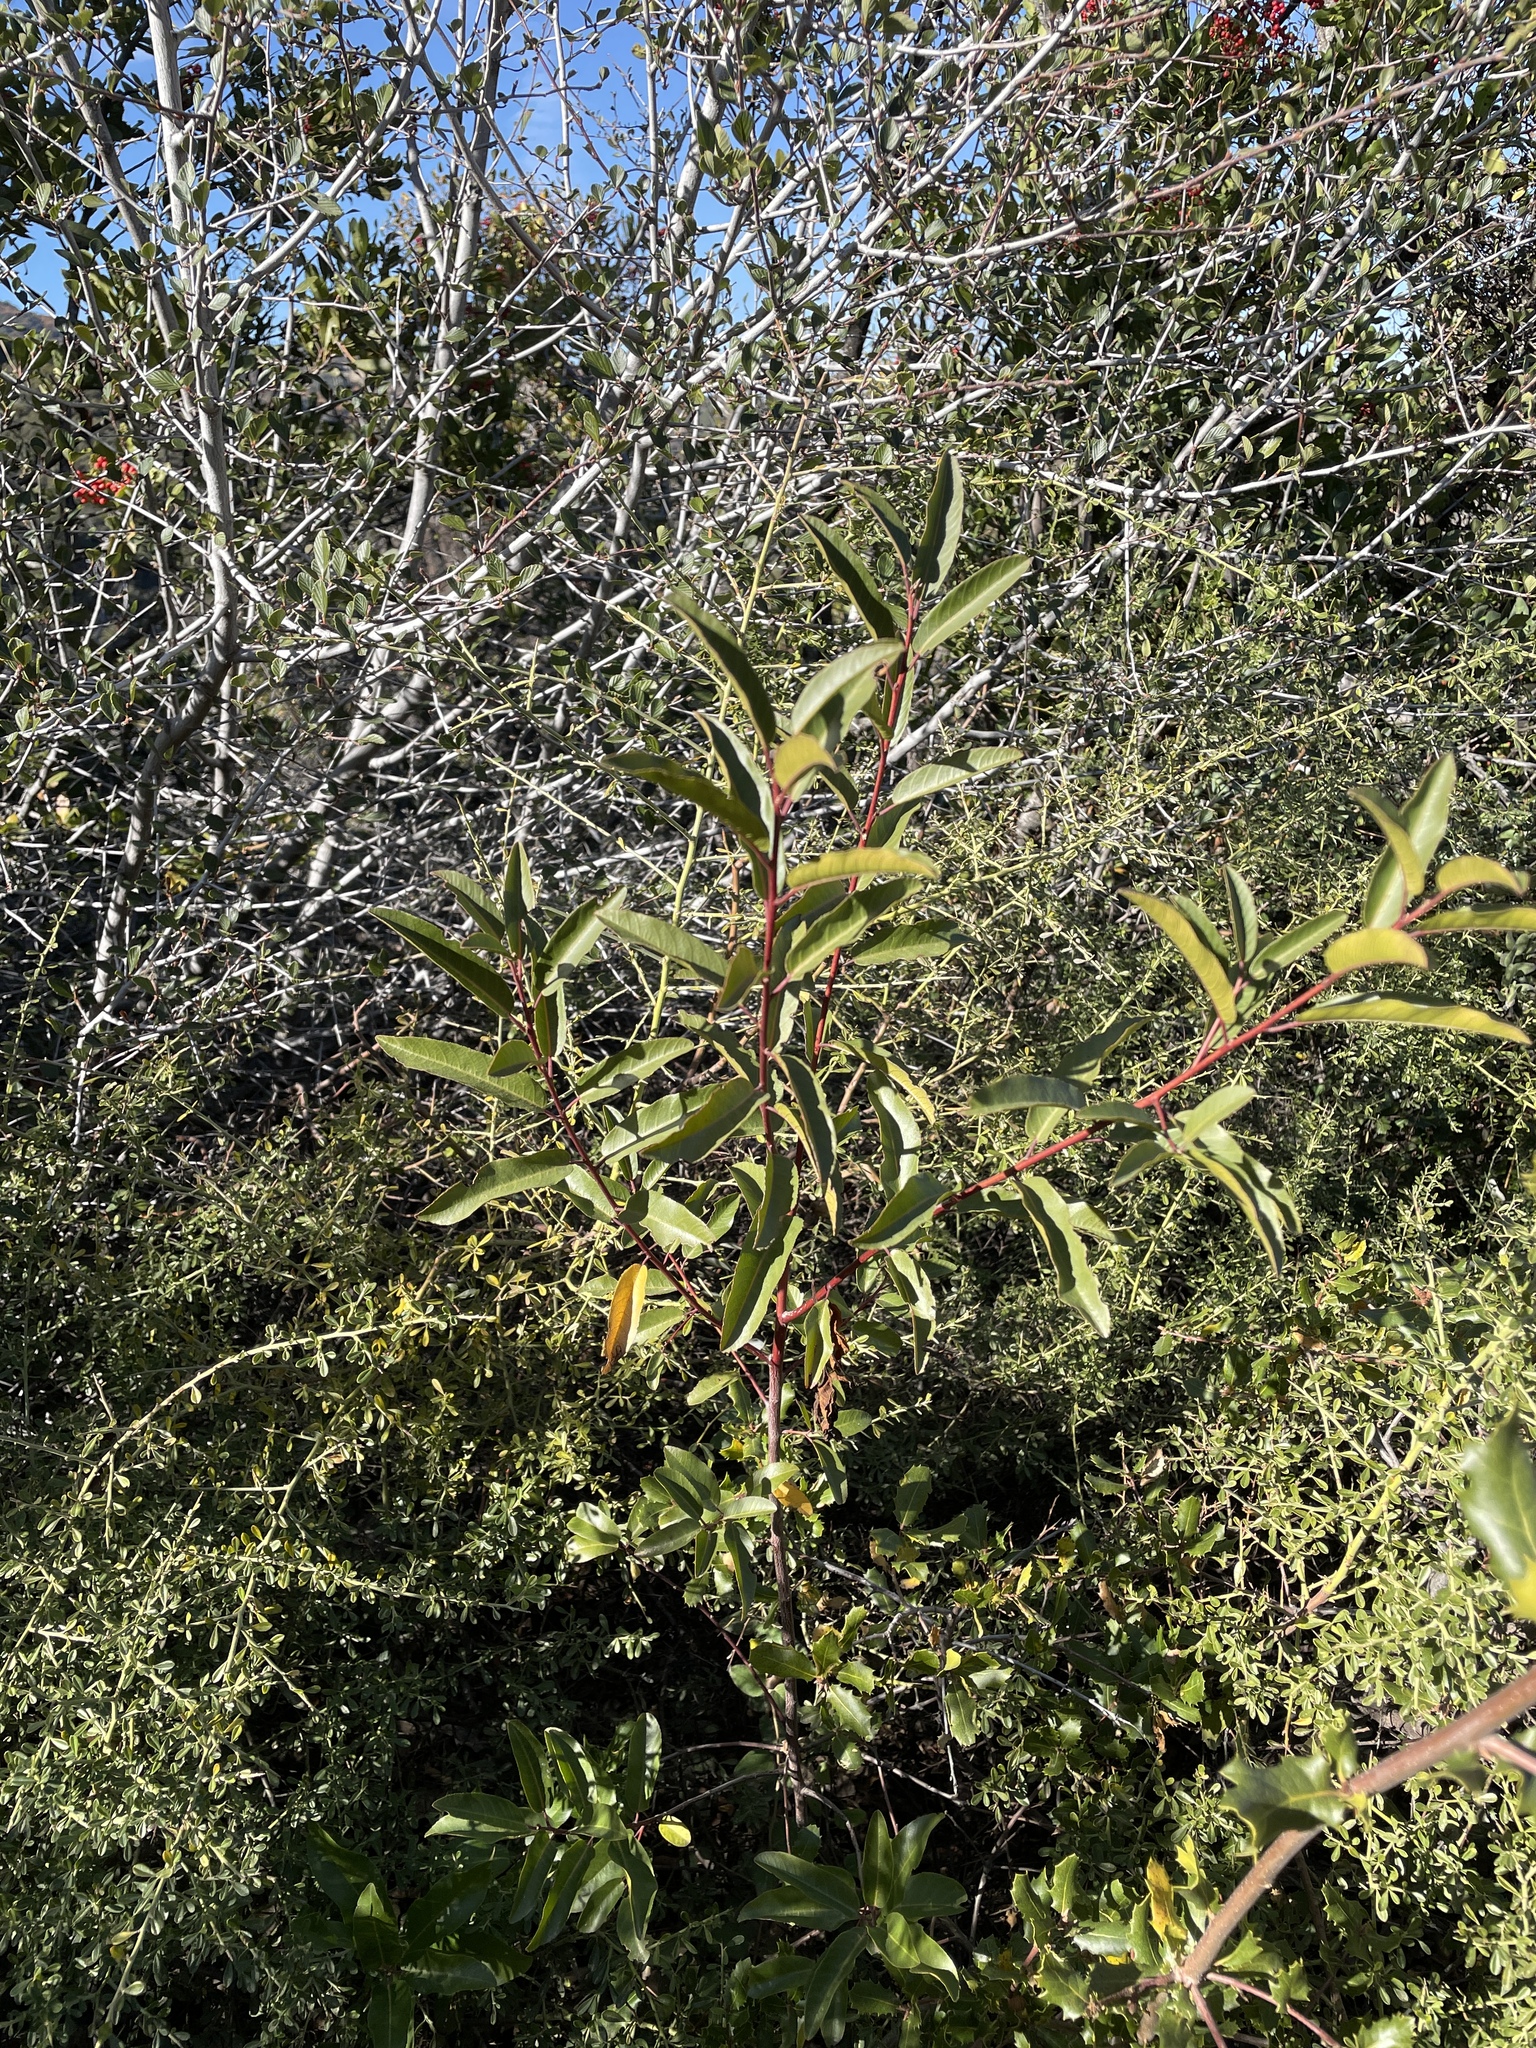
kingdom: Plantae
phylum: Tracheophyta
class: Magnoliopsida
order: Rosales
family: Rhamnaceae
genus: Frangula
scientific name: Frangula californica
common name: California buckthorn
